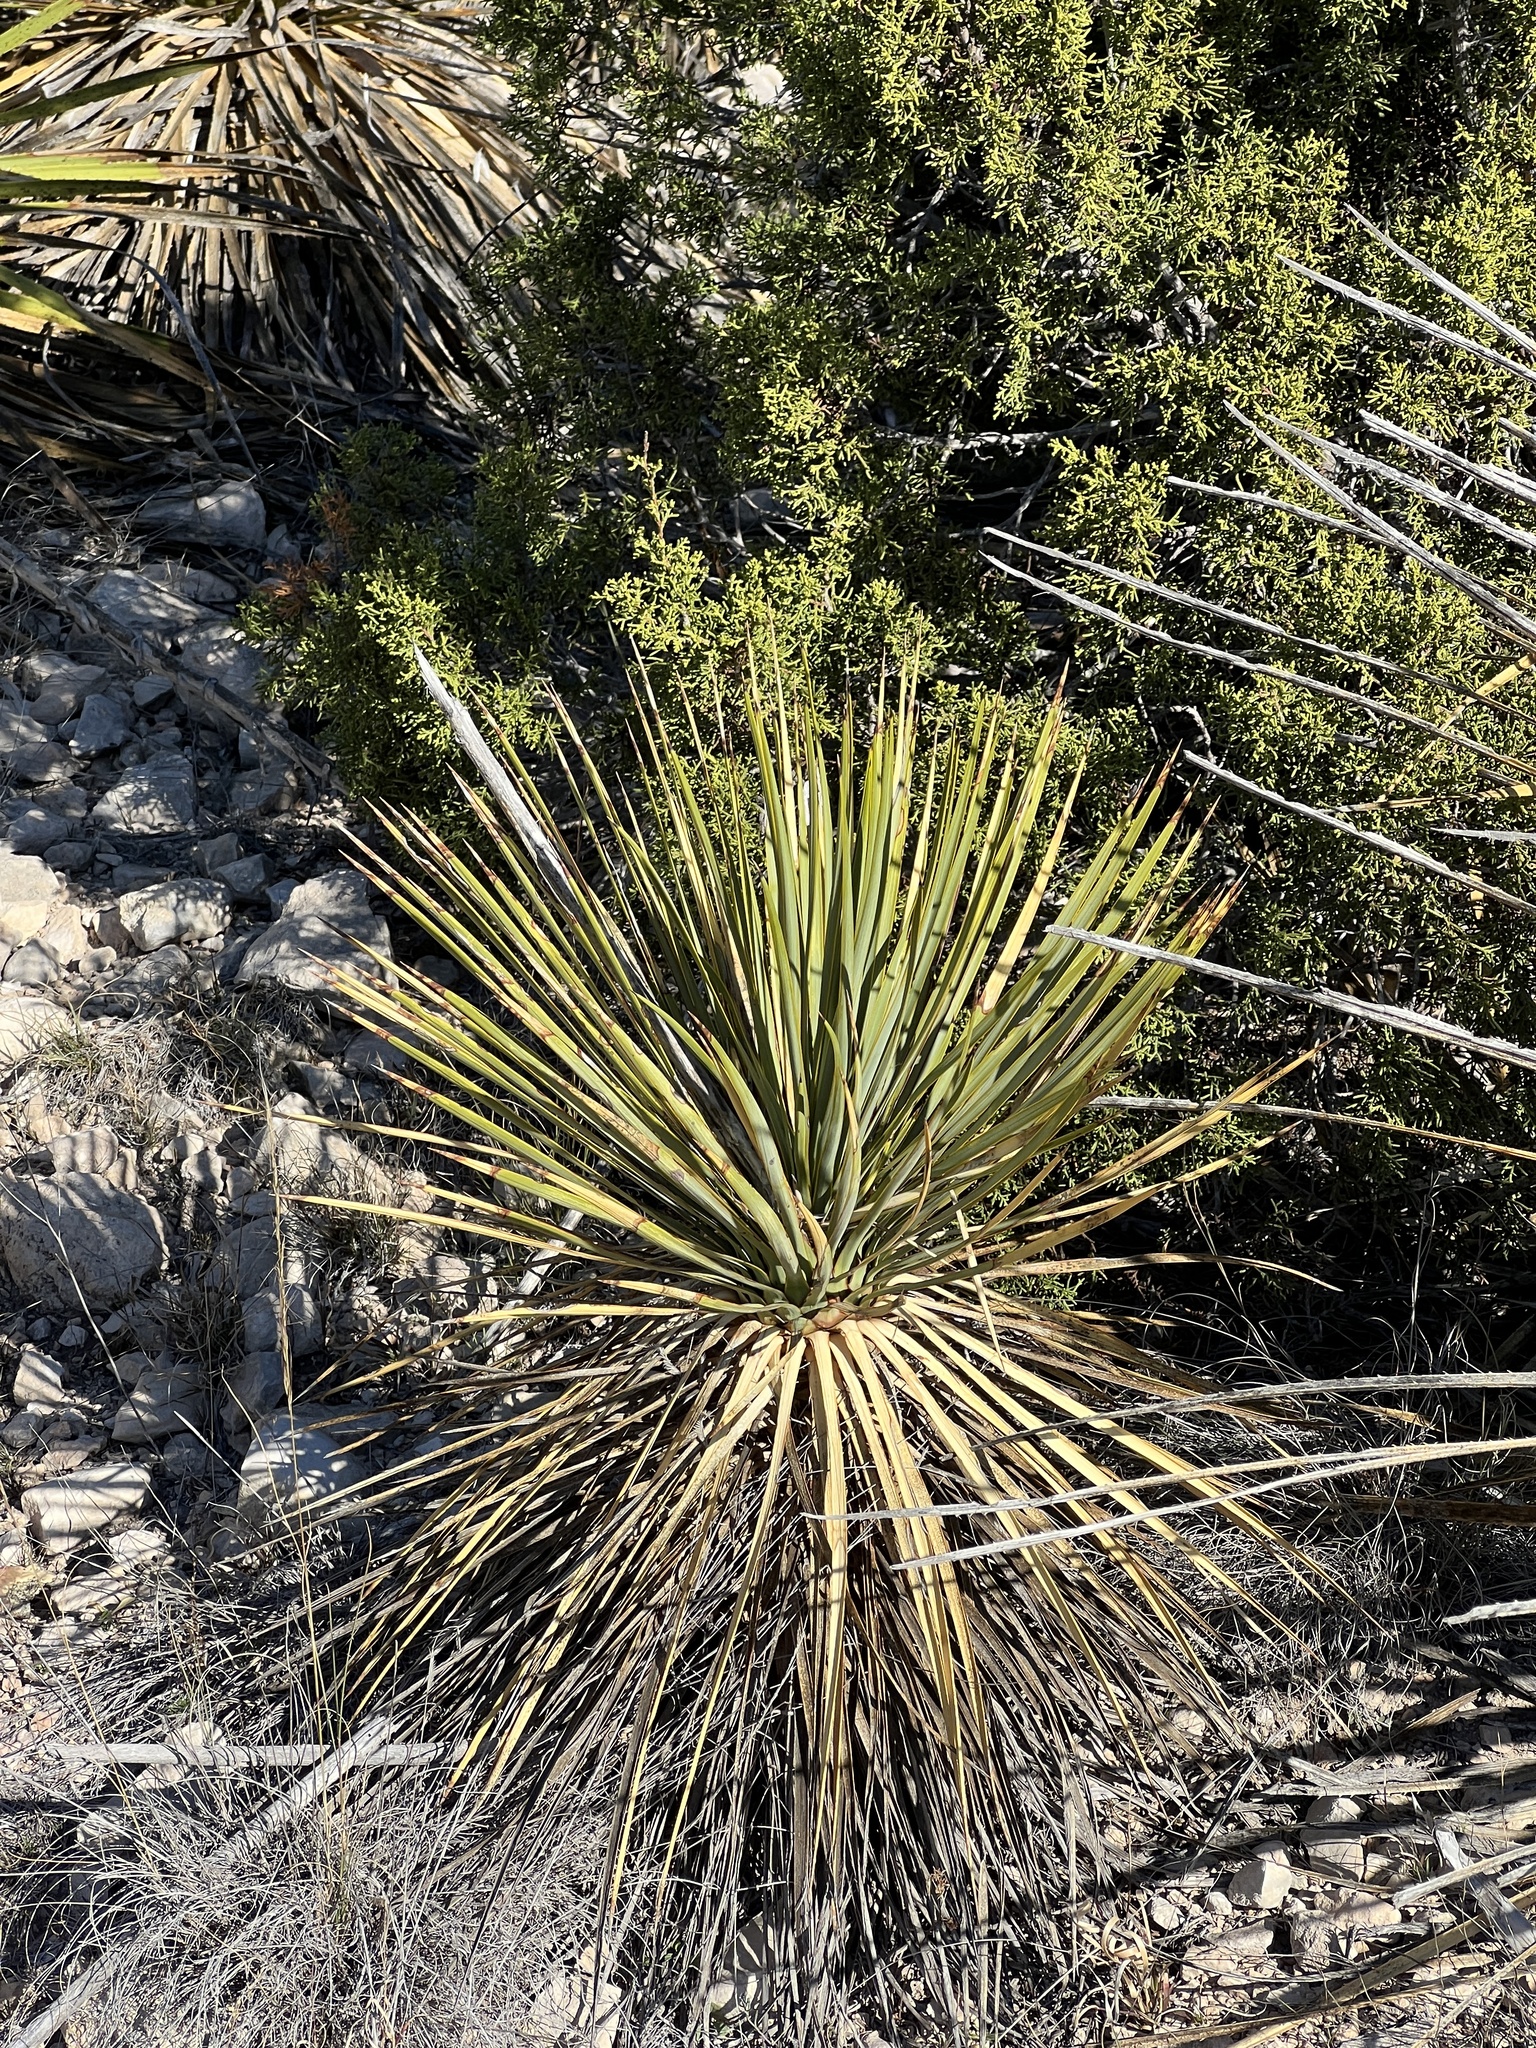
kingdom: Plantae
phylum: Tracheophyta
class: Liliopsida
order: Asparagales
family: Asparagaceae
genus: Dasylirion
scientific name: Dasylirion texanum
